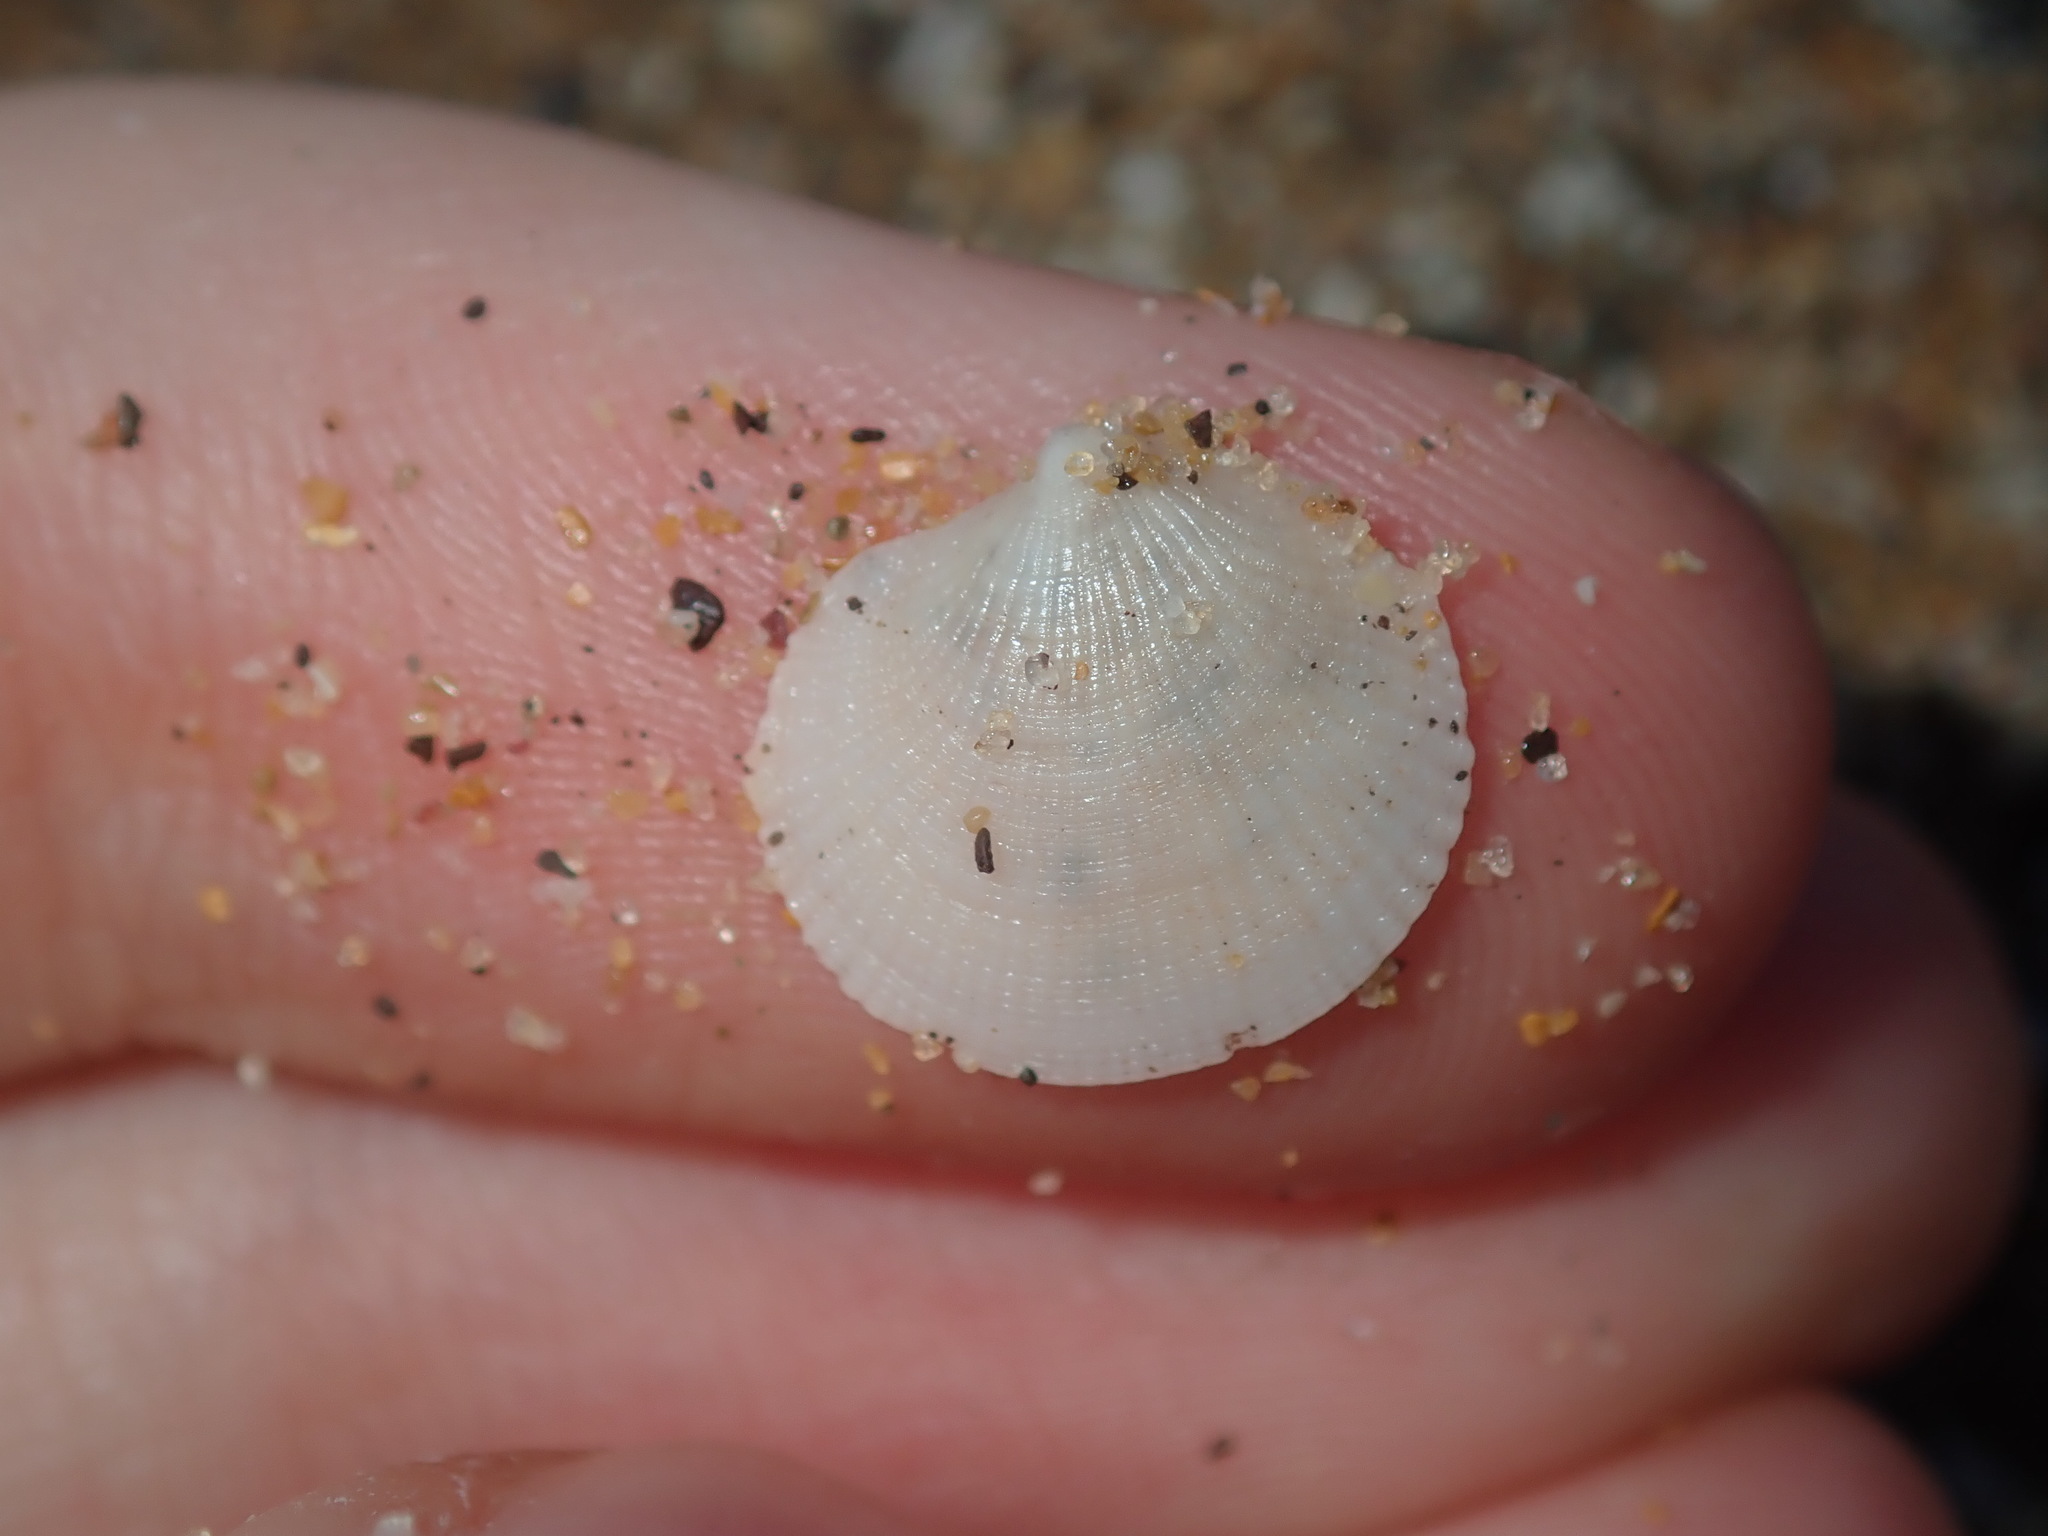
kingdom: Animalia
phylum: Mollusca
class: Bivalvia
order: Lucinida
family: Lucinidae
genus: Ctena
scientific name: Ctena bella
